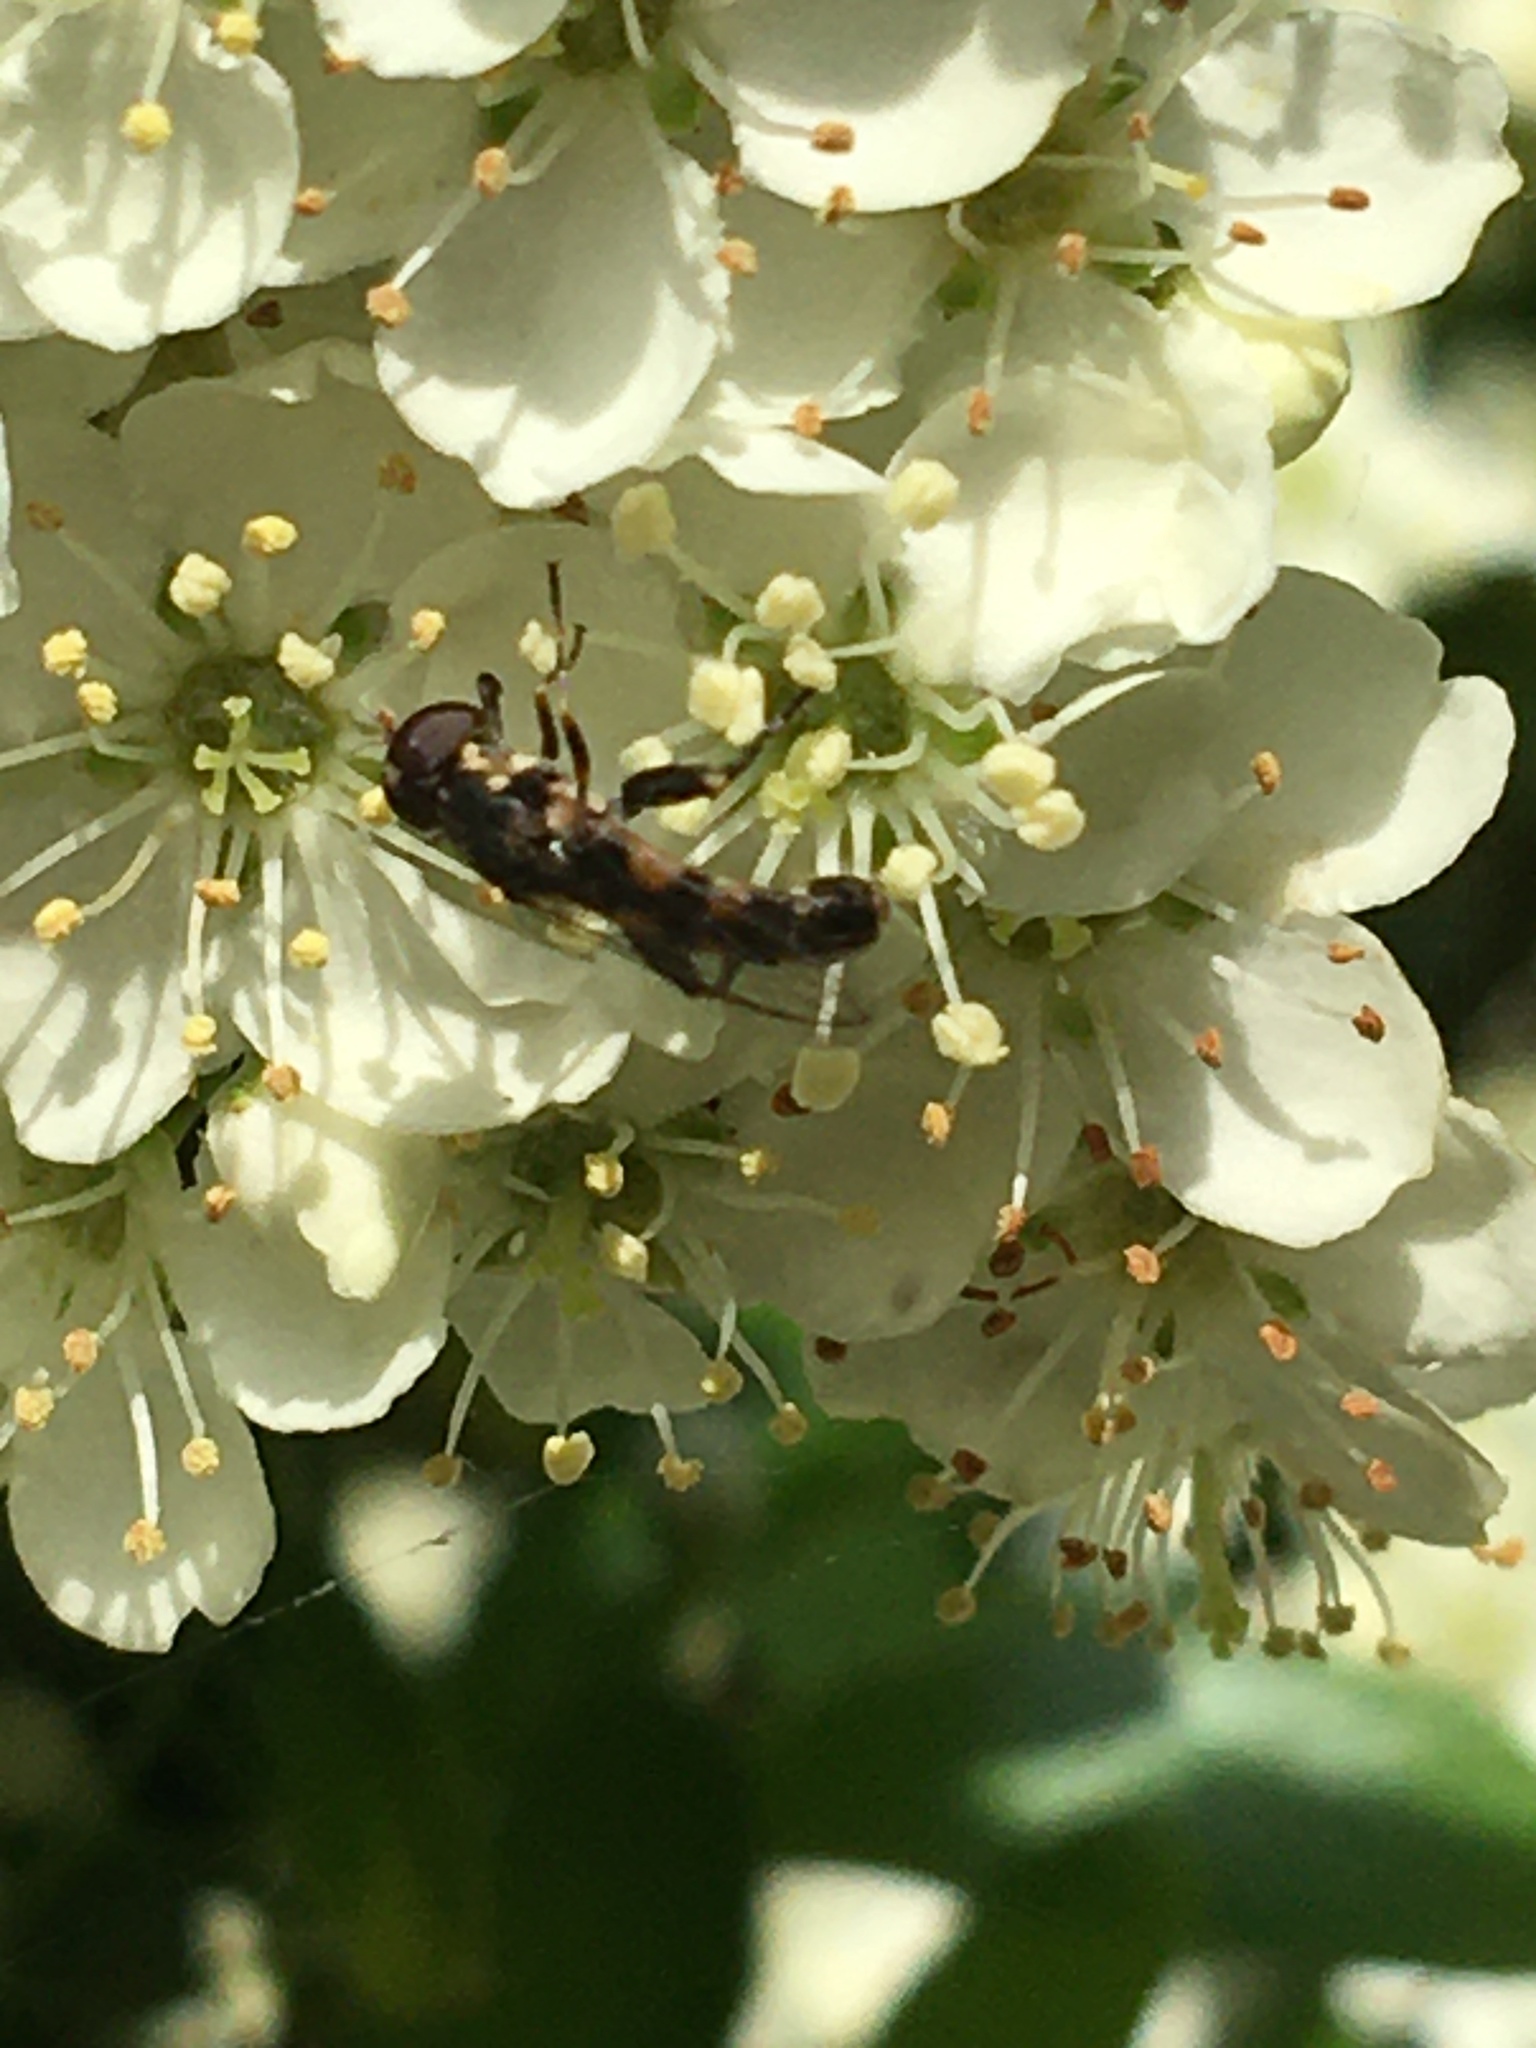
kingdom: Animalia
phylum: Arthropoda
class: Insecta
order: Diptera
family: Syrphidae
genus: Syritta
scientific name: Syritta pipiens
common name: Hover fly
